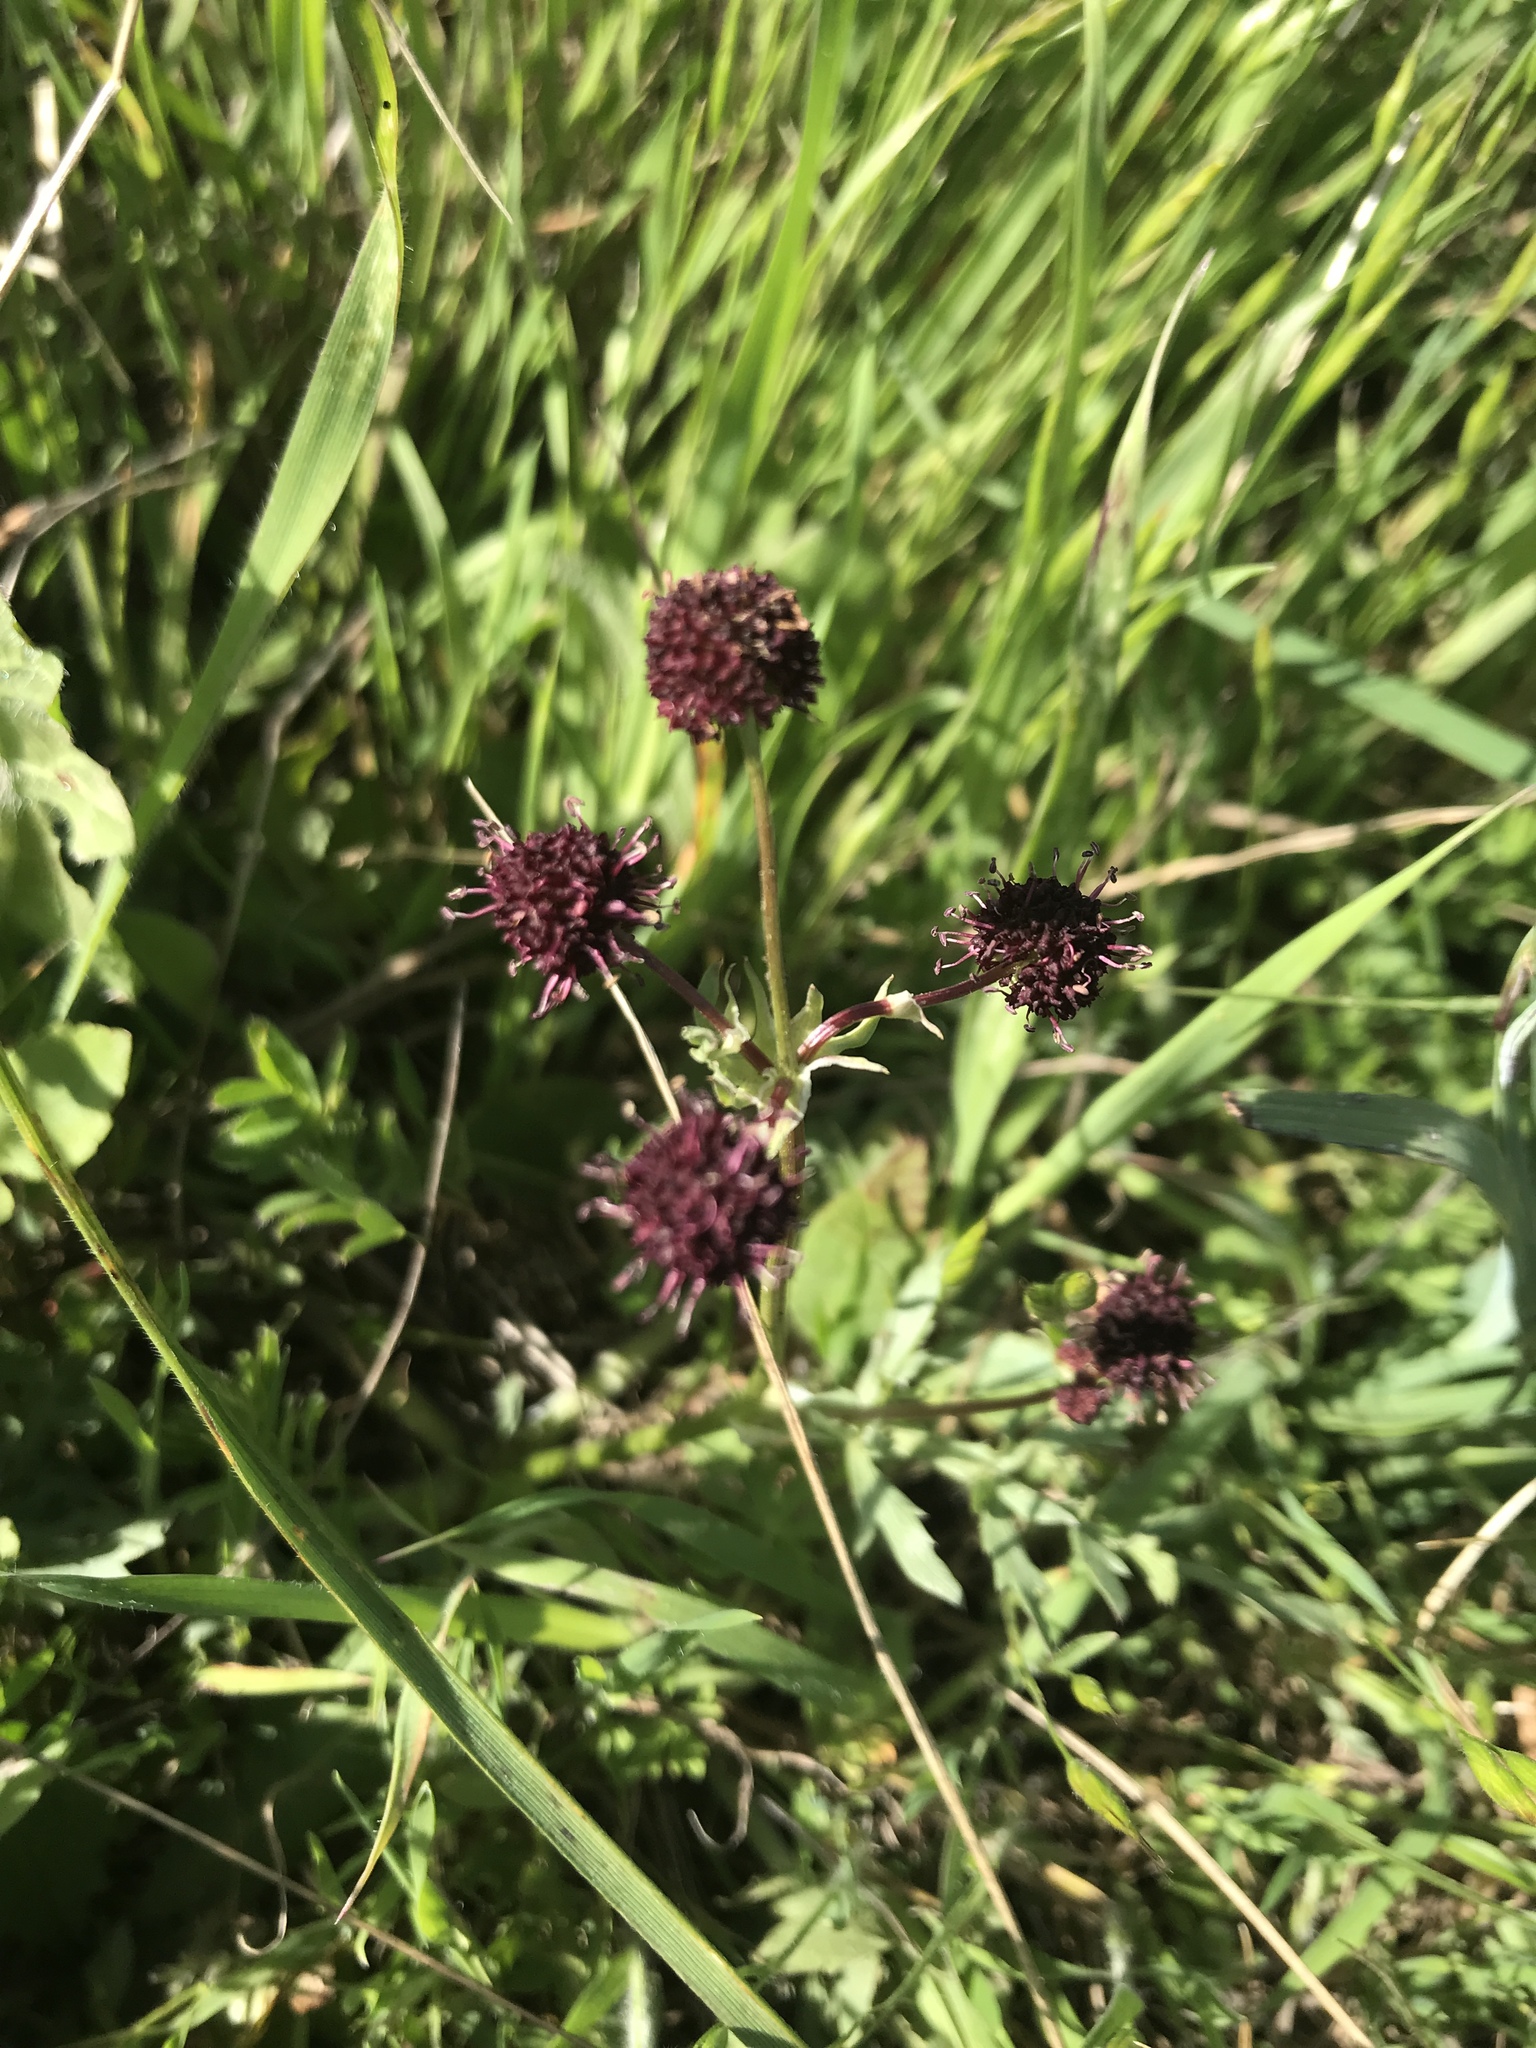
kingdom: Plantae
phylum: Tracheophyta
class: Magnoliopsida
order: Apiales
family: Apiaceae
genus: Sanicula
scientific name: Sanicula bipinnatifida
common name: Shoe-buttons
